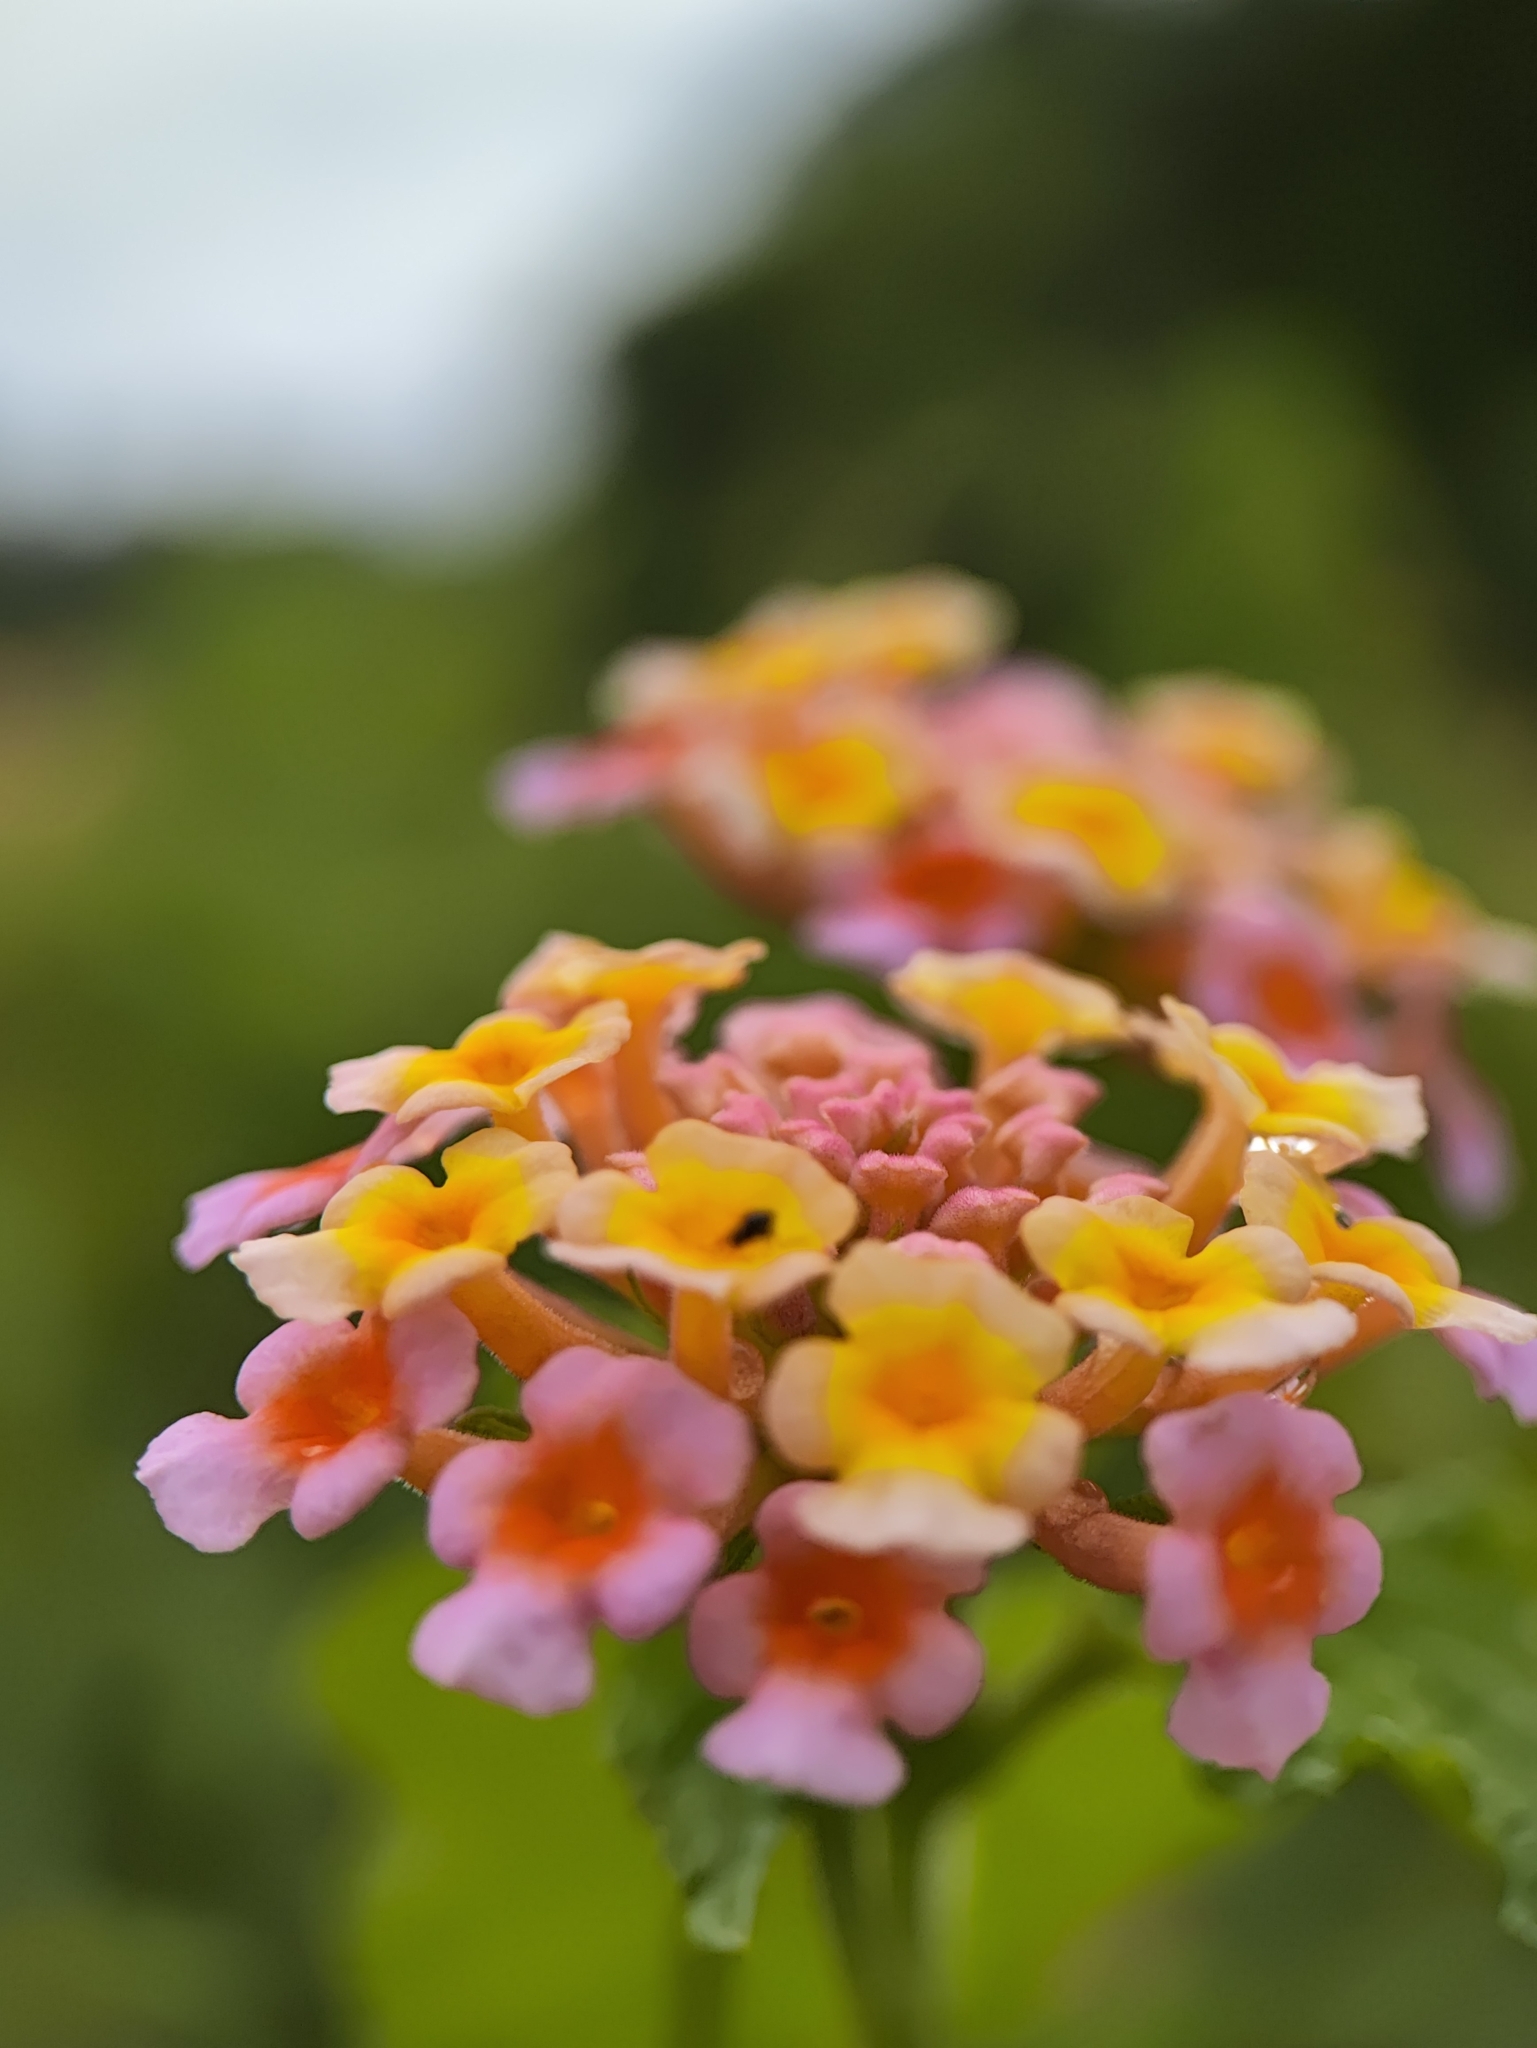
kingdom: Plantae
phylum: Tracheophyta
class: Magnoliopsida
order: Lamiales
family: Verbenaceae
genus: Lantana
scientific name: Lantana camara
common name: Lantana
